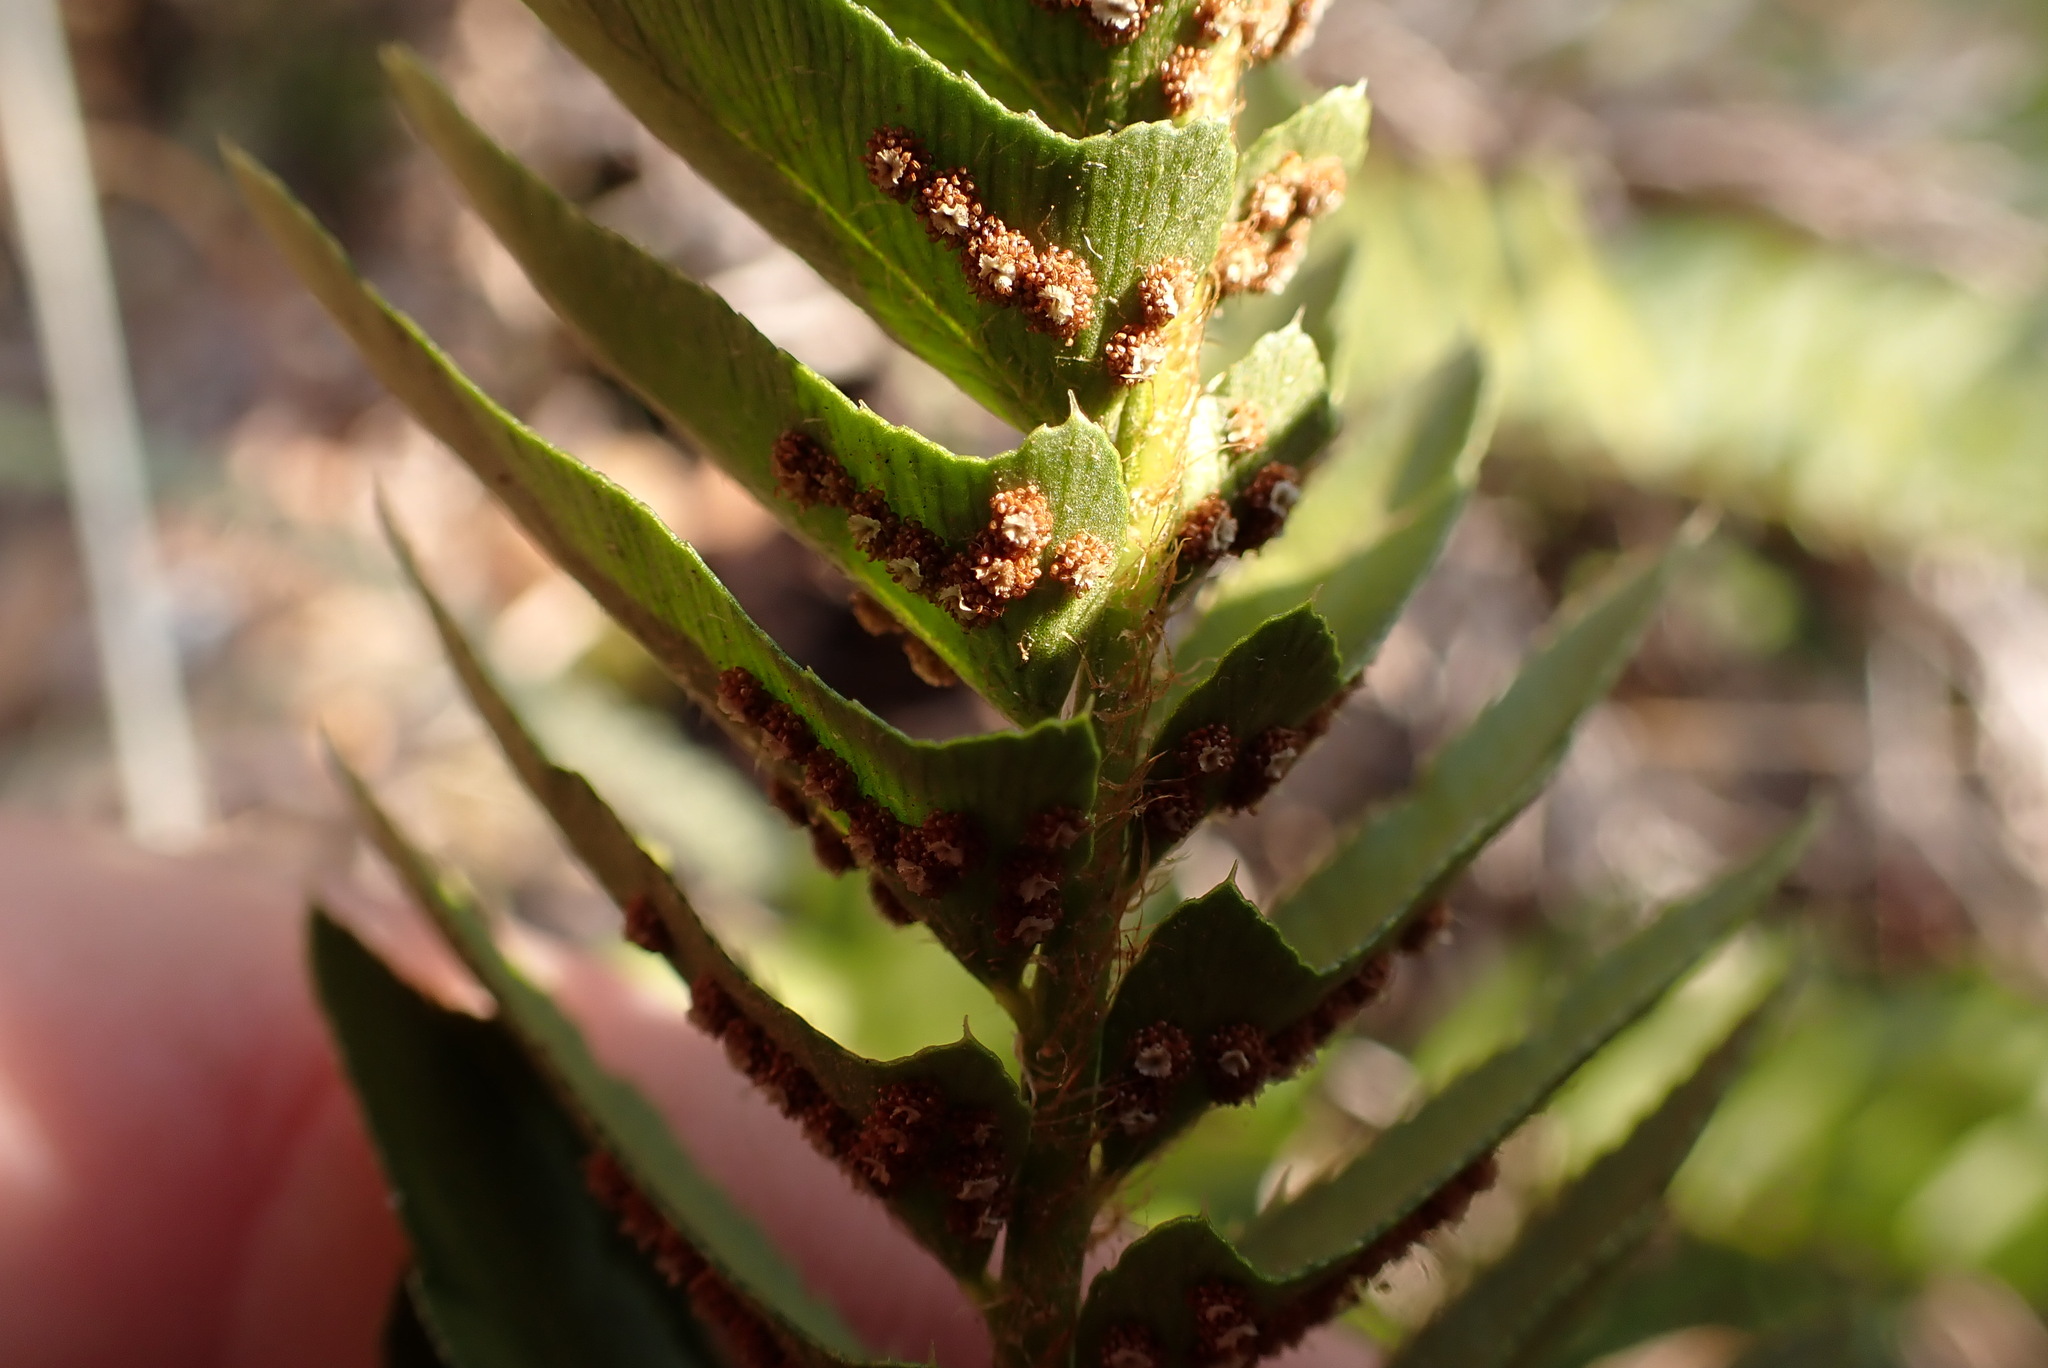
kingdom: Plantae
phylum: Tracheophyta
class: Polypodiopsida
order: Polypodiales
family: Dryopteridaceae
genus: Polystichum
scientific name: Polystichum imbricans
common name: Dwarf western sword fern
